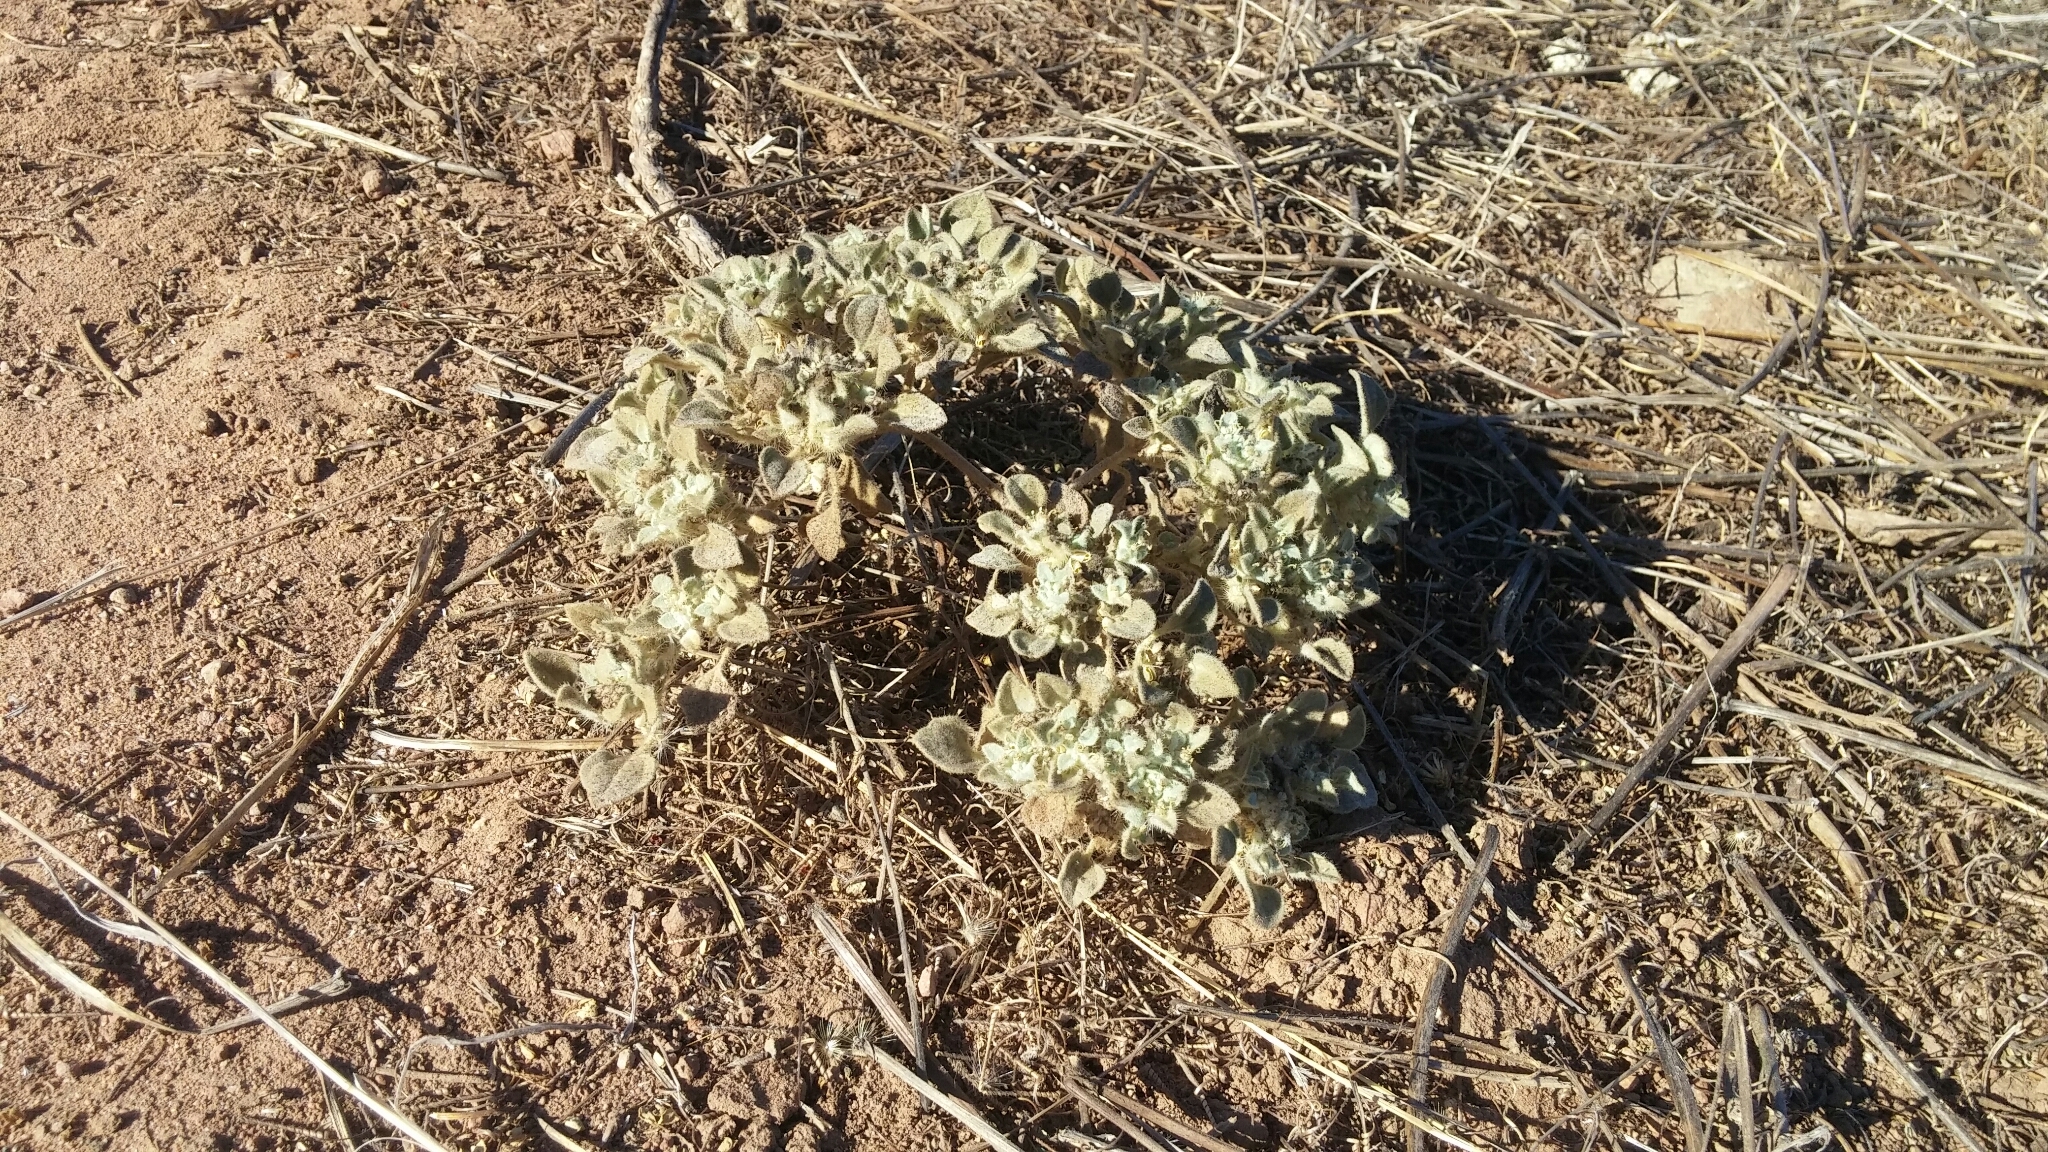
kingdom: Plantae
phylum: Tracheophyta
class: Magnoliopsida
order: Malpighiales
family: Euphorbiaceae
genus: Croton
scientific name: Croton setiger
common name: Dove weed
